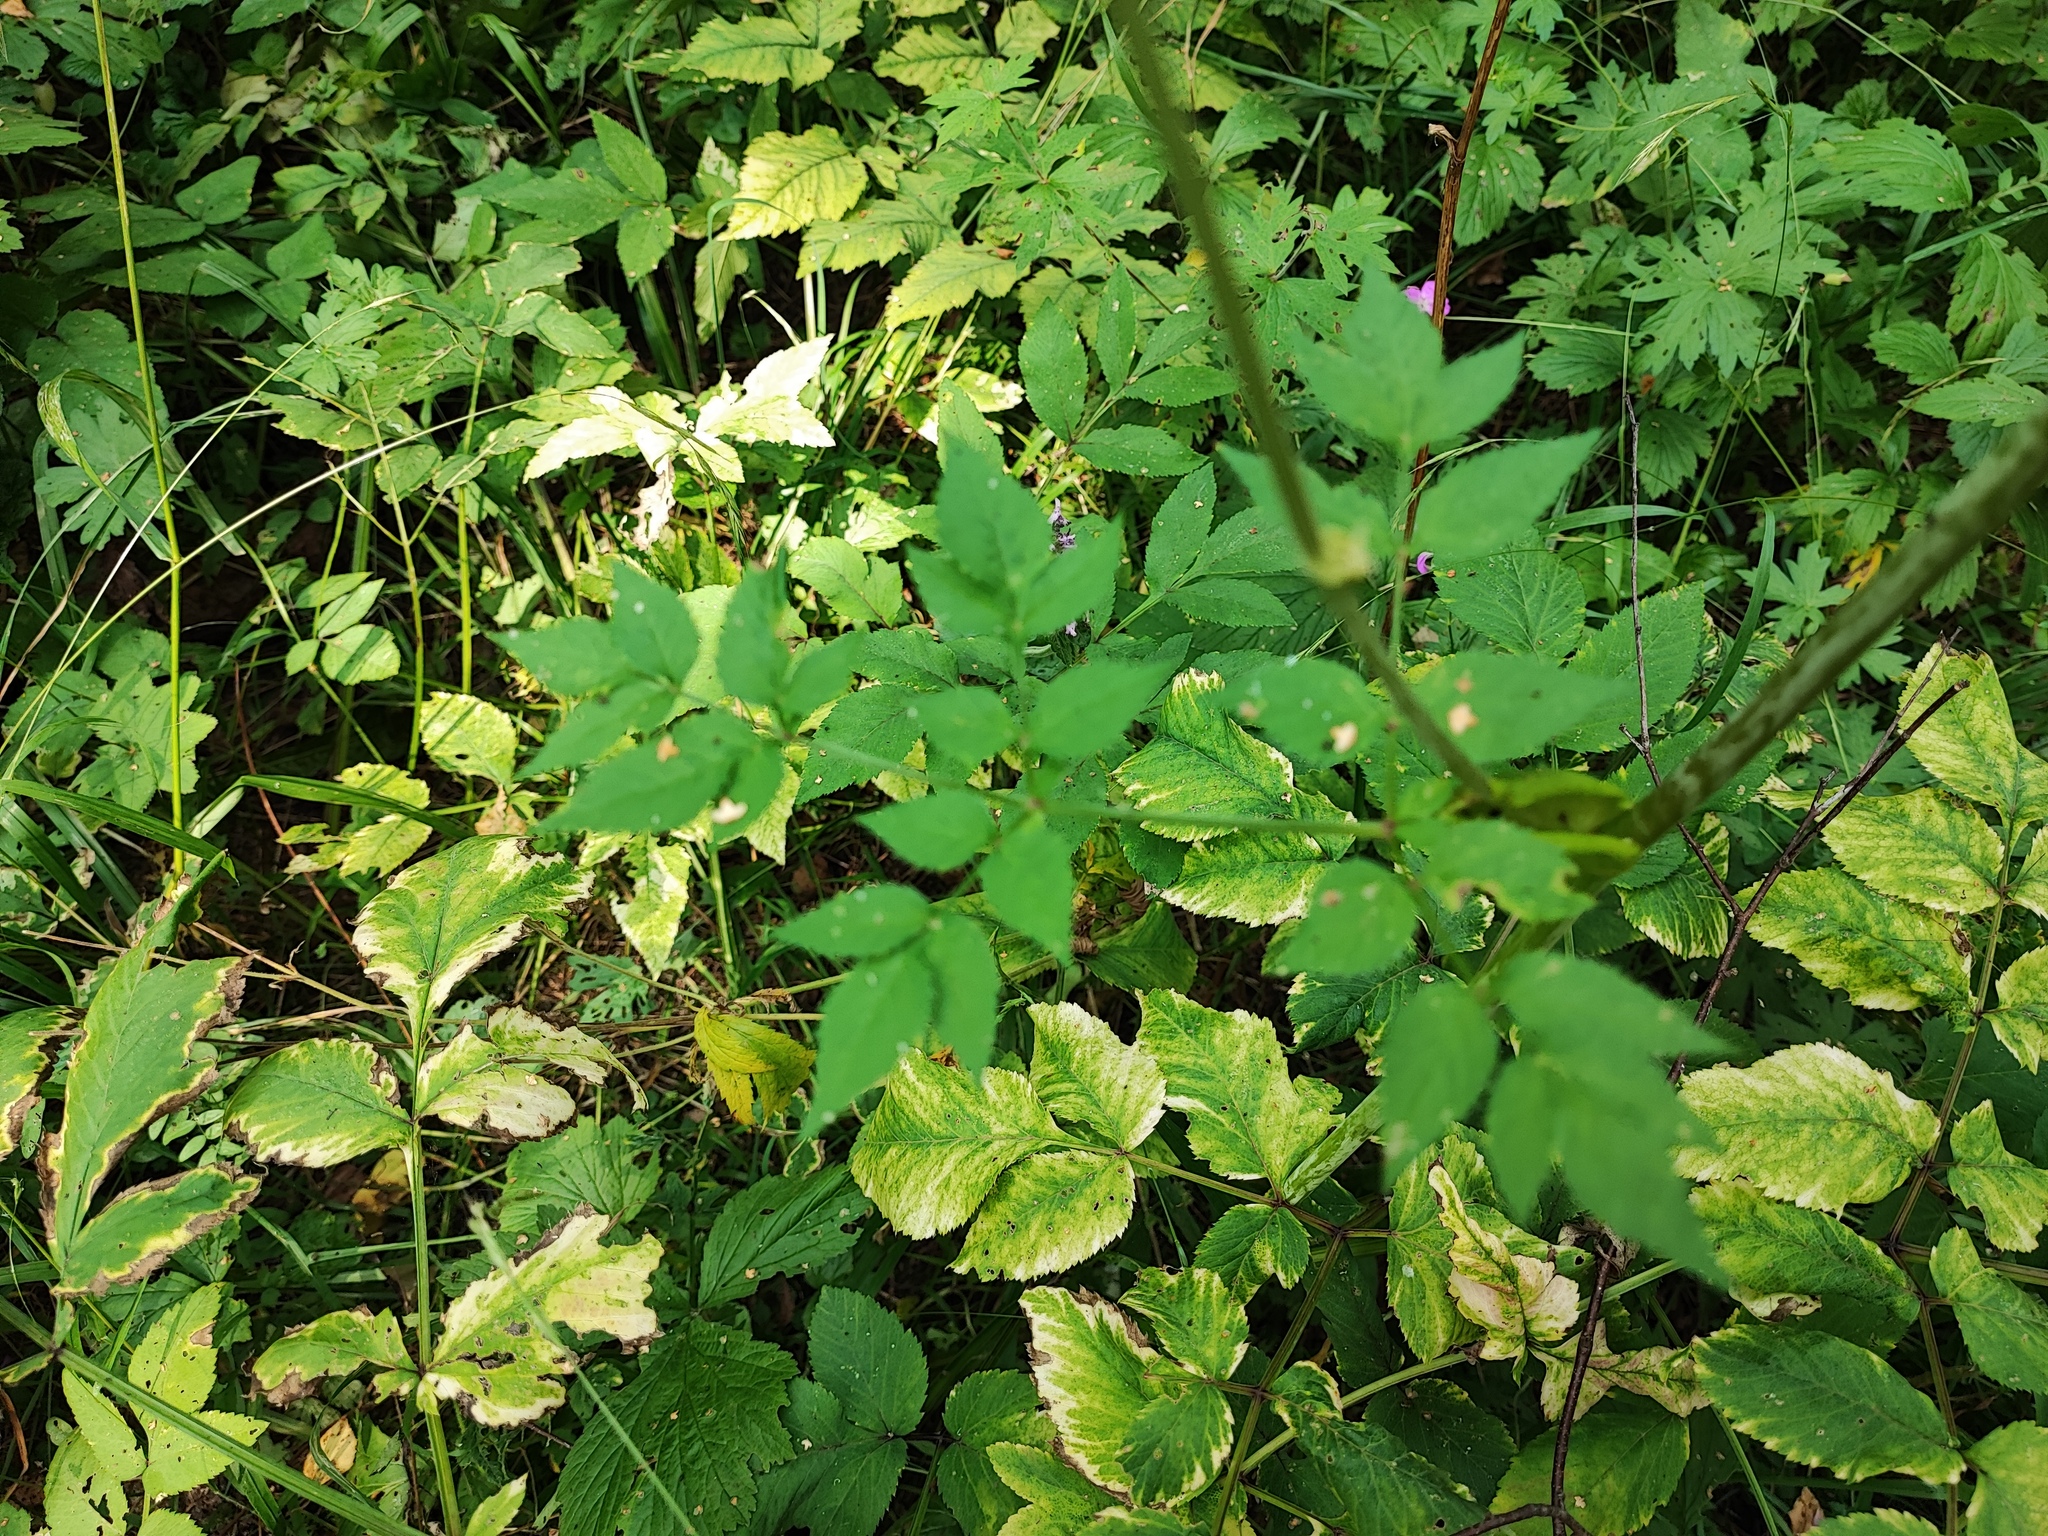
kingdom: Plantae
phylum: Tracheophyta
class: Magnoliopsida
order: Apiales
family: Apiaceae
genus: Aegopodium
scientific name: Aegopodium podagraria
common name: Ground-elder
